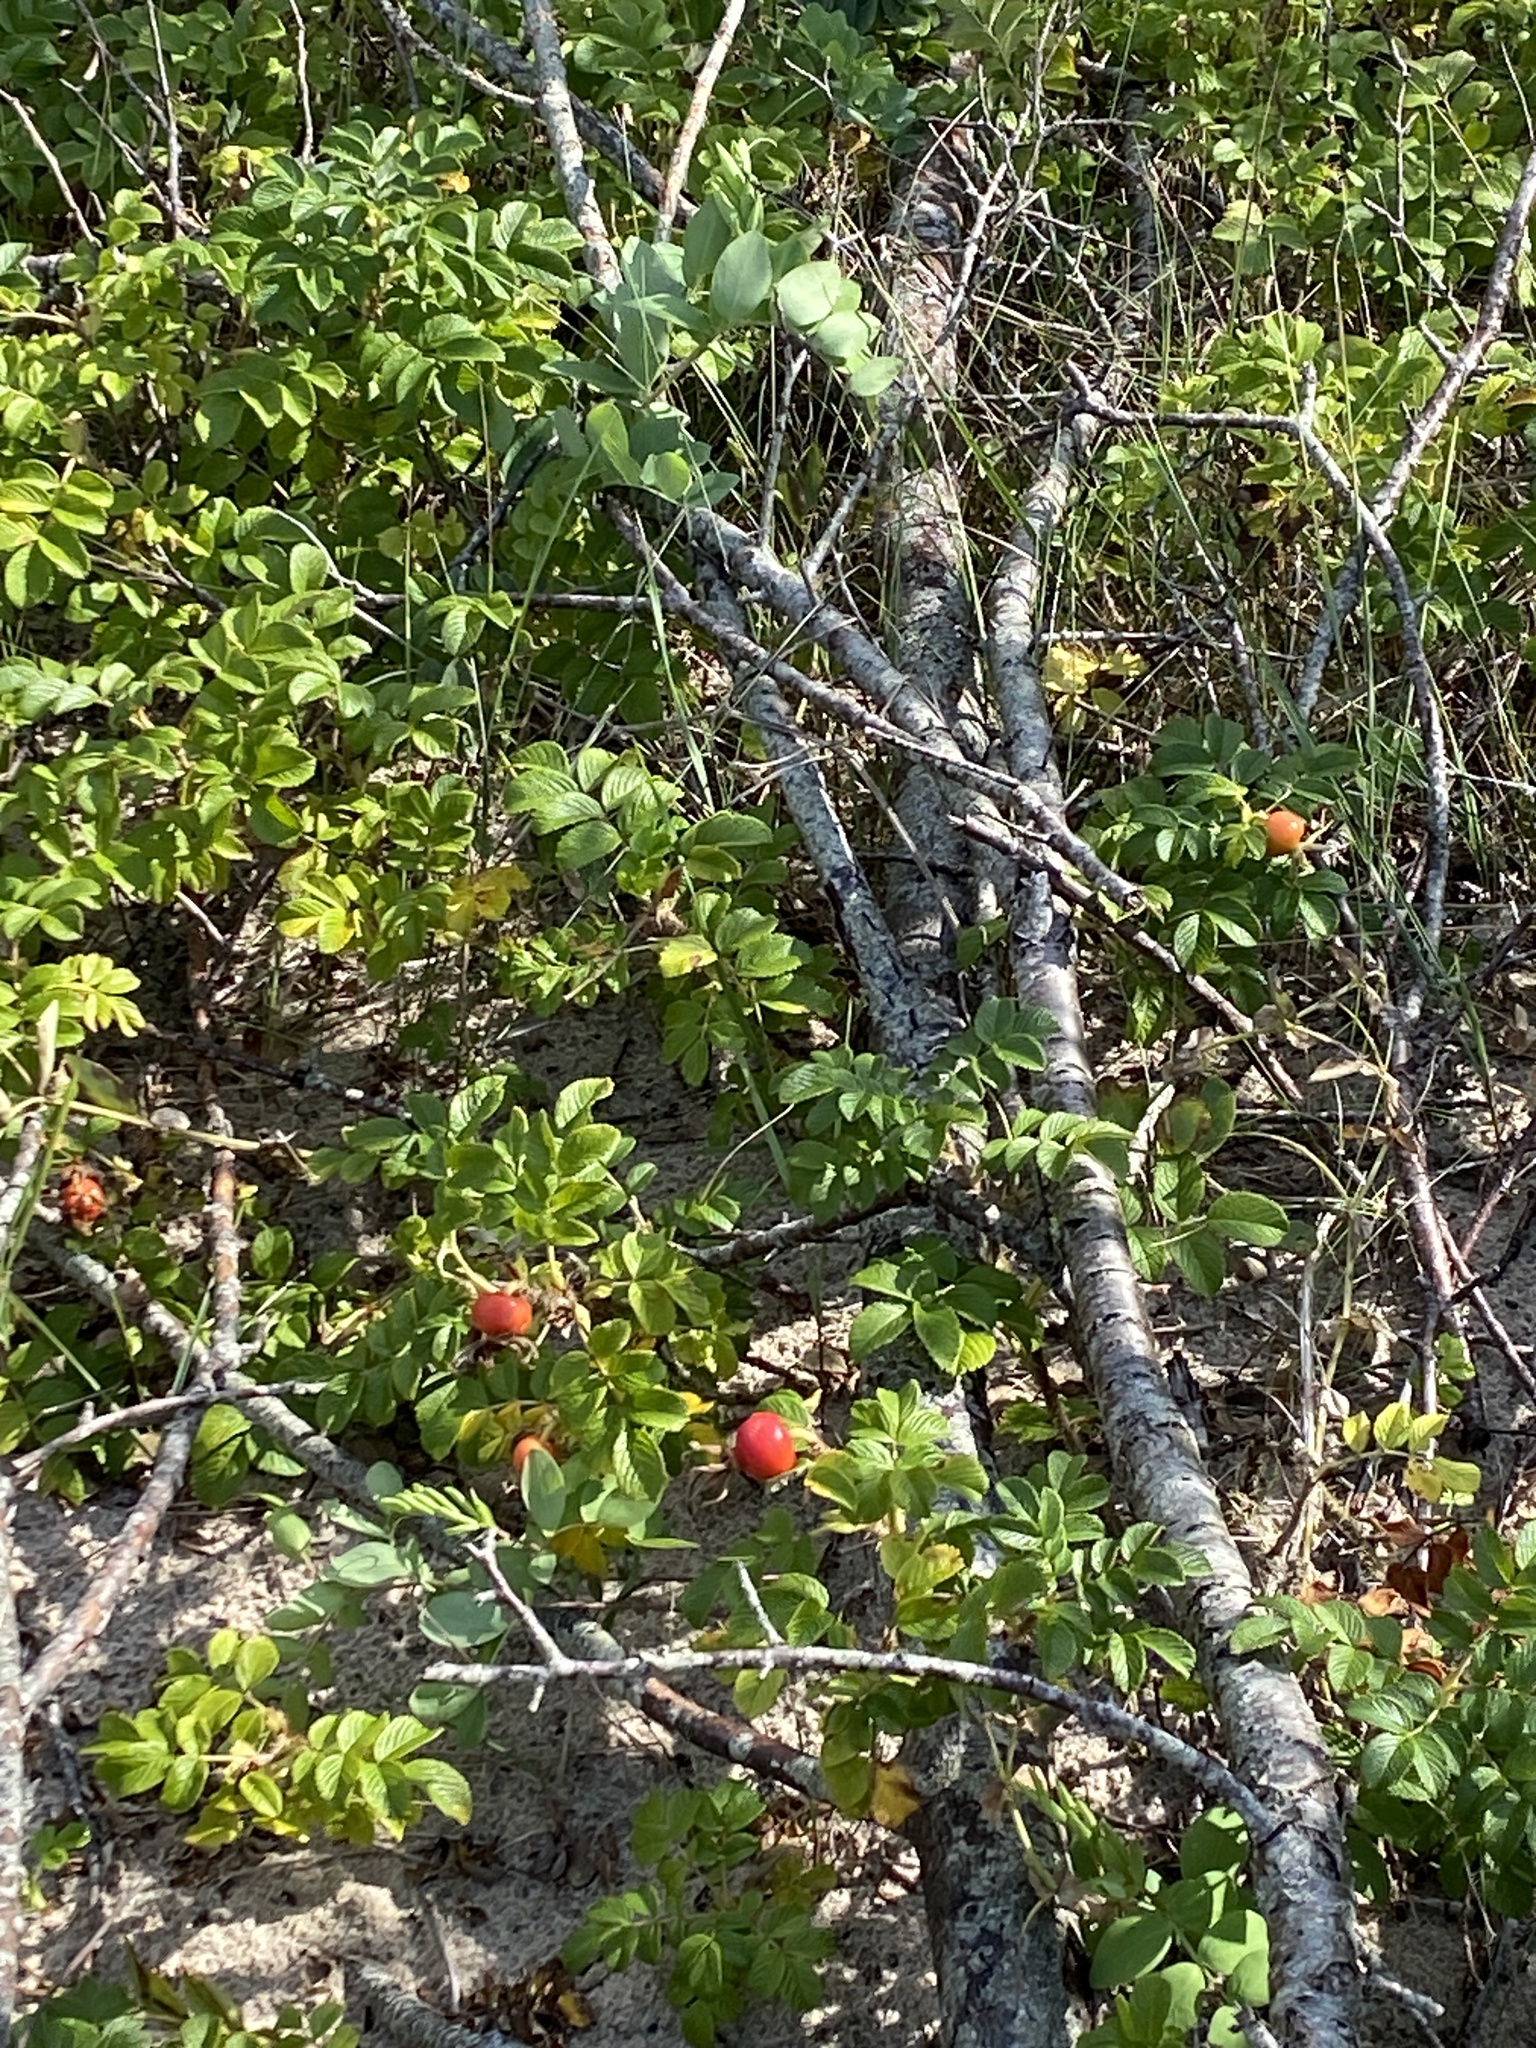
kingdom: Plantae
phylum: Tracheophyta
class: Magnoliopsida
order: Rosales
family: Rosaceae
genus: Rosa
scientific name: Rosa rugosa
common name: Japanese rose
